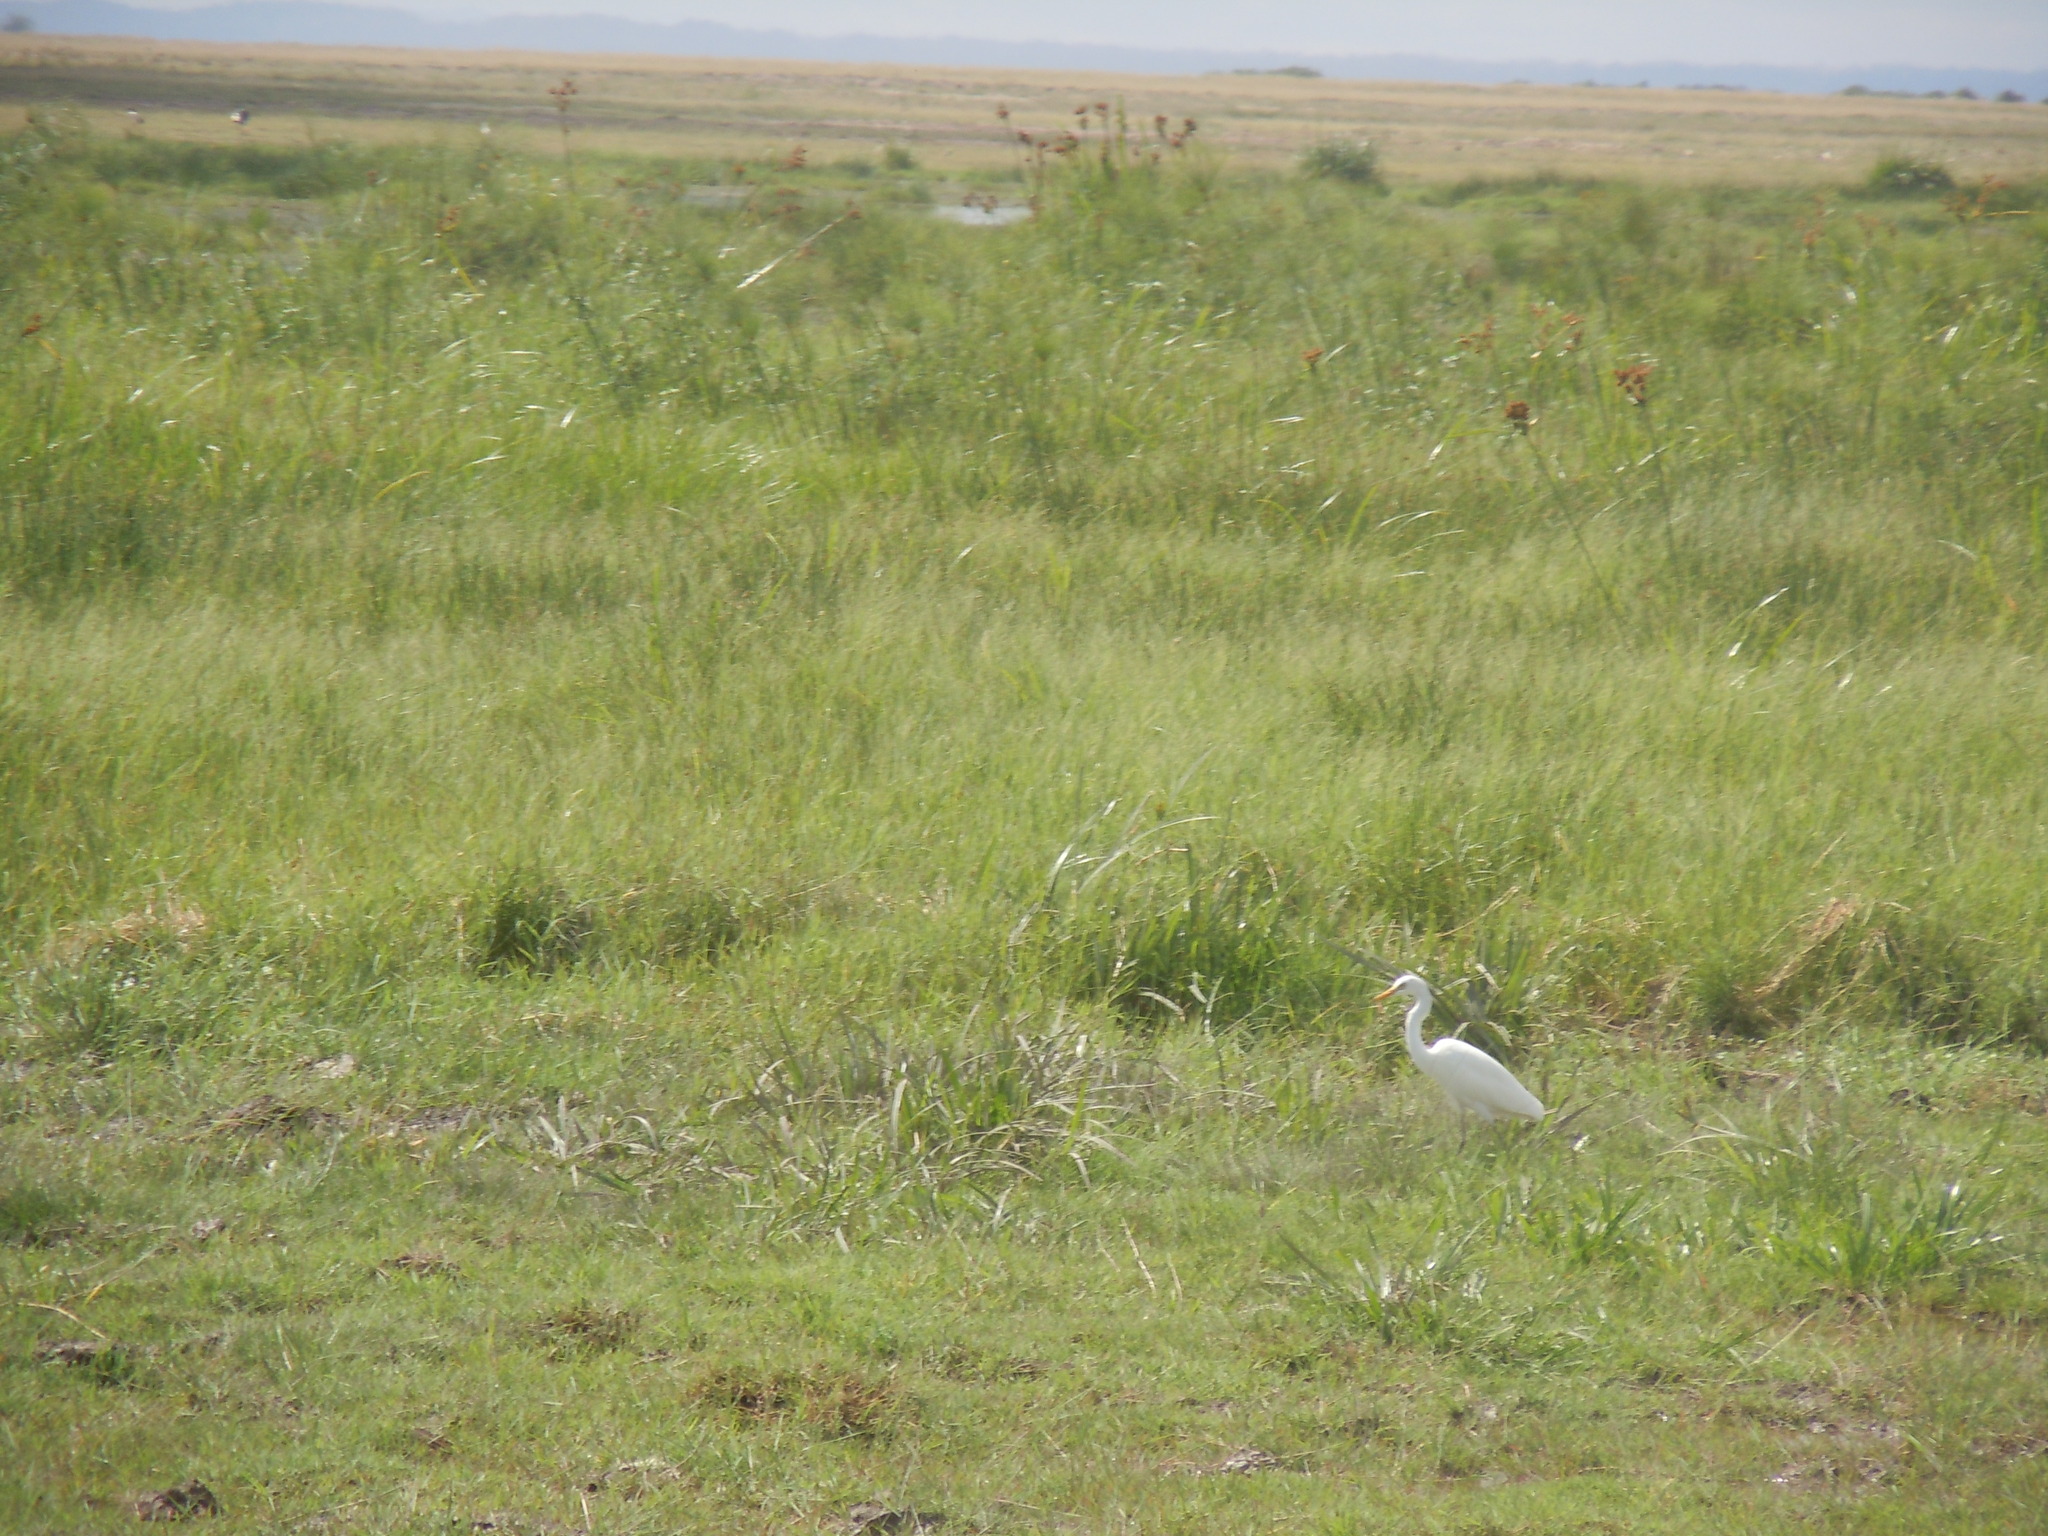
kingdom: Animalia
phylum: Chordata
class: Aves
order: Pelecaniformes
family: Ardeidae
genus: Egretta
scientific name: Egretta intermedia
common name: Intermediate egret
